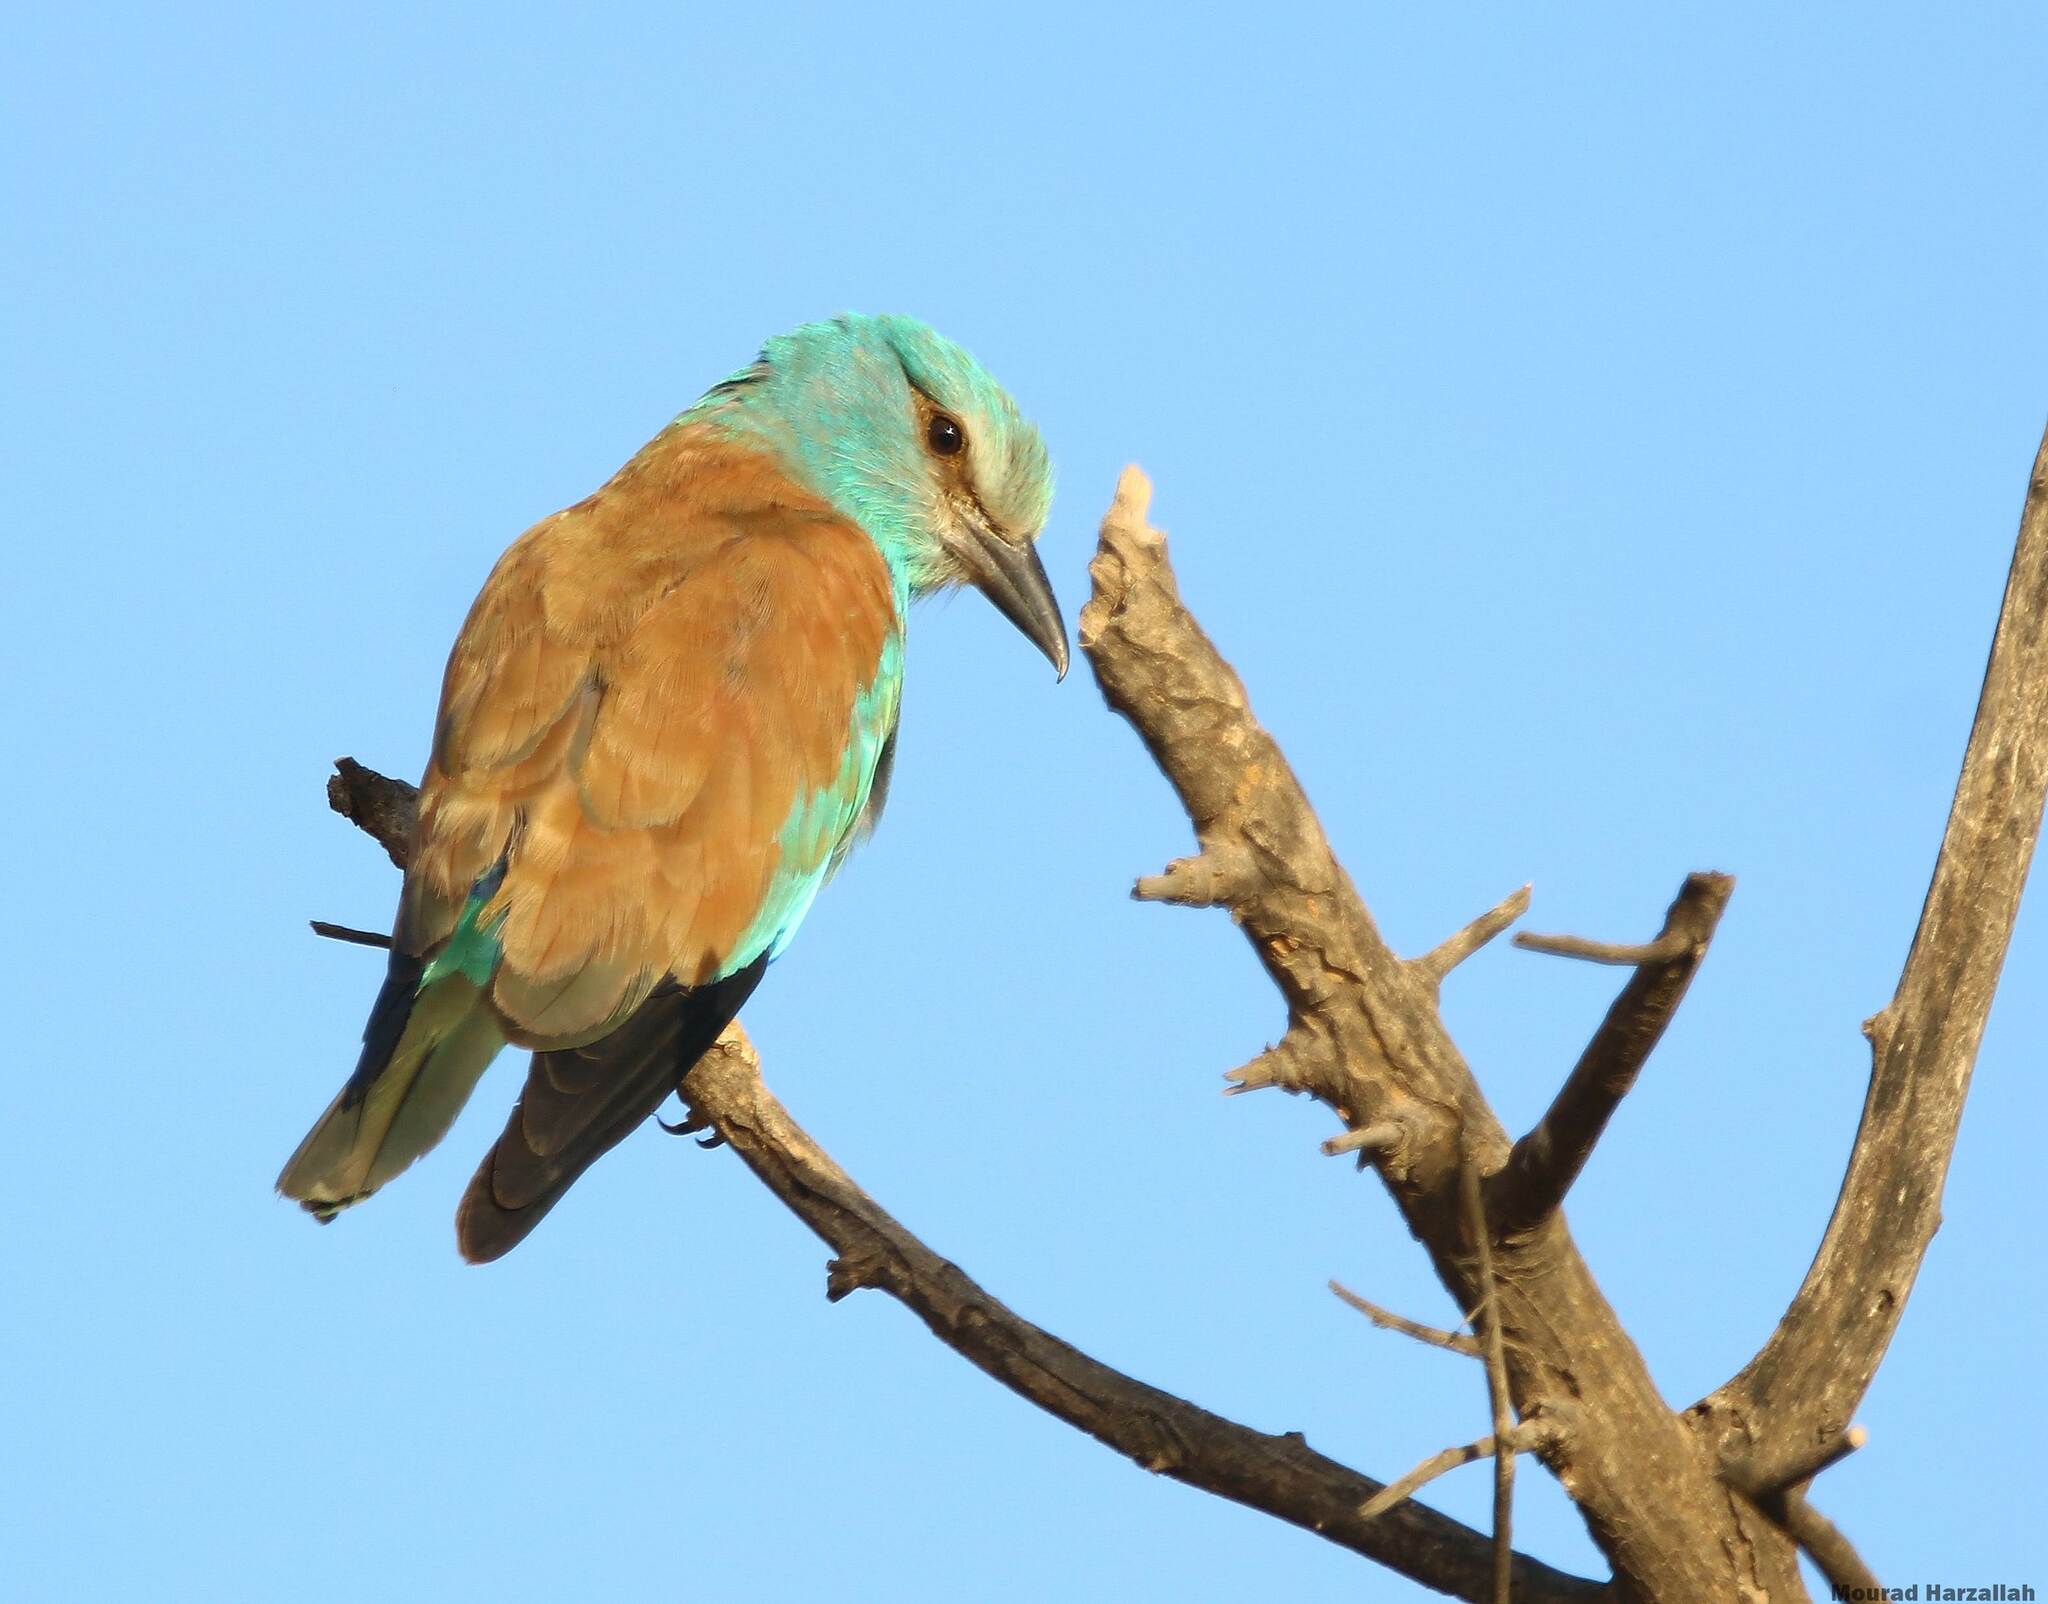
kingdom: Animalia
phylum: Chordata
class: Aves
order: Coraciiformes
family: Coraciidae
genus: Coracias
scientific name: Coracias garrulus
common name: European roller
